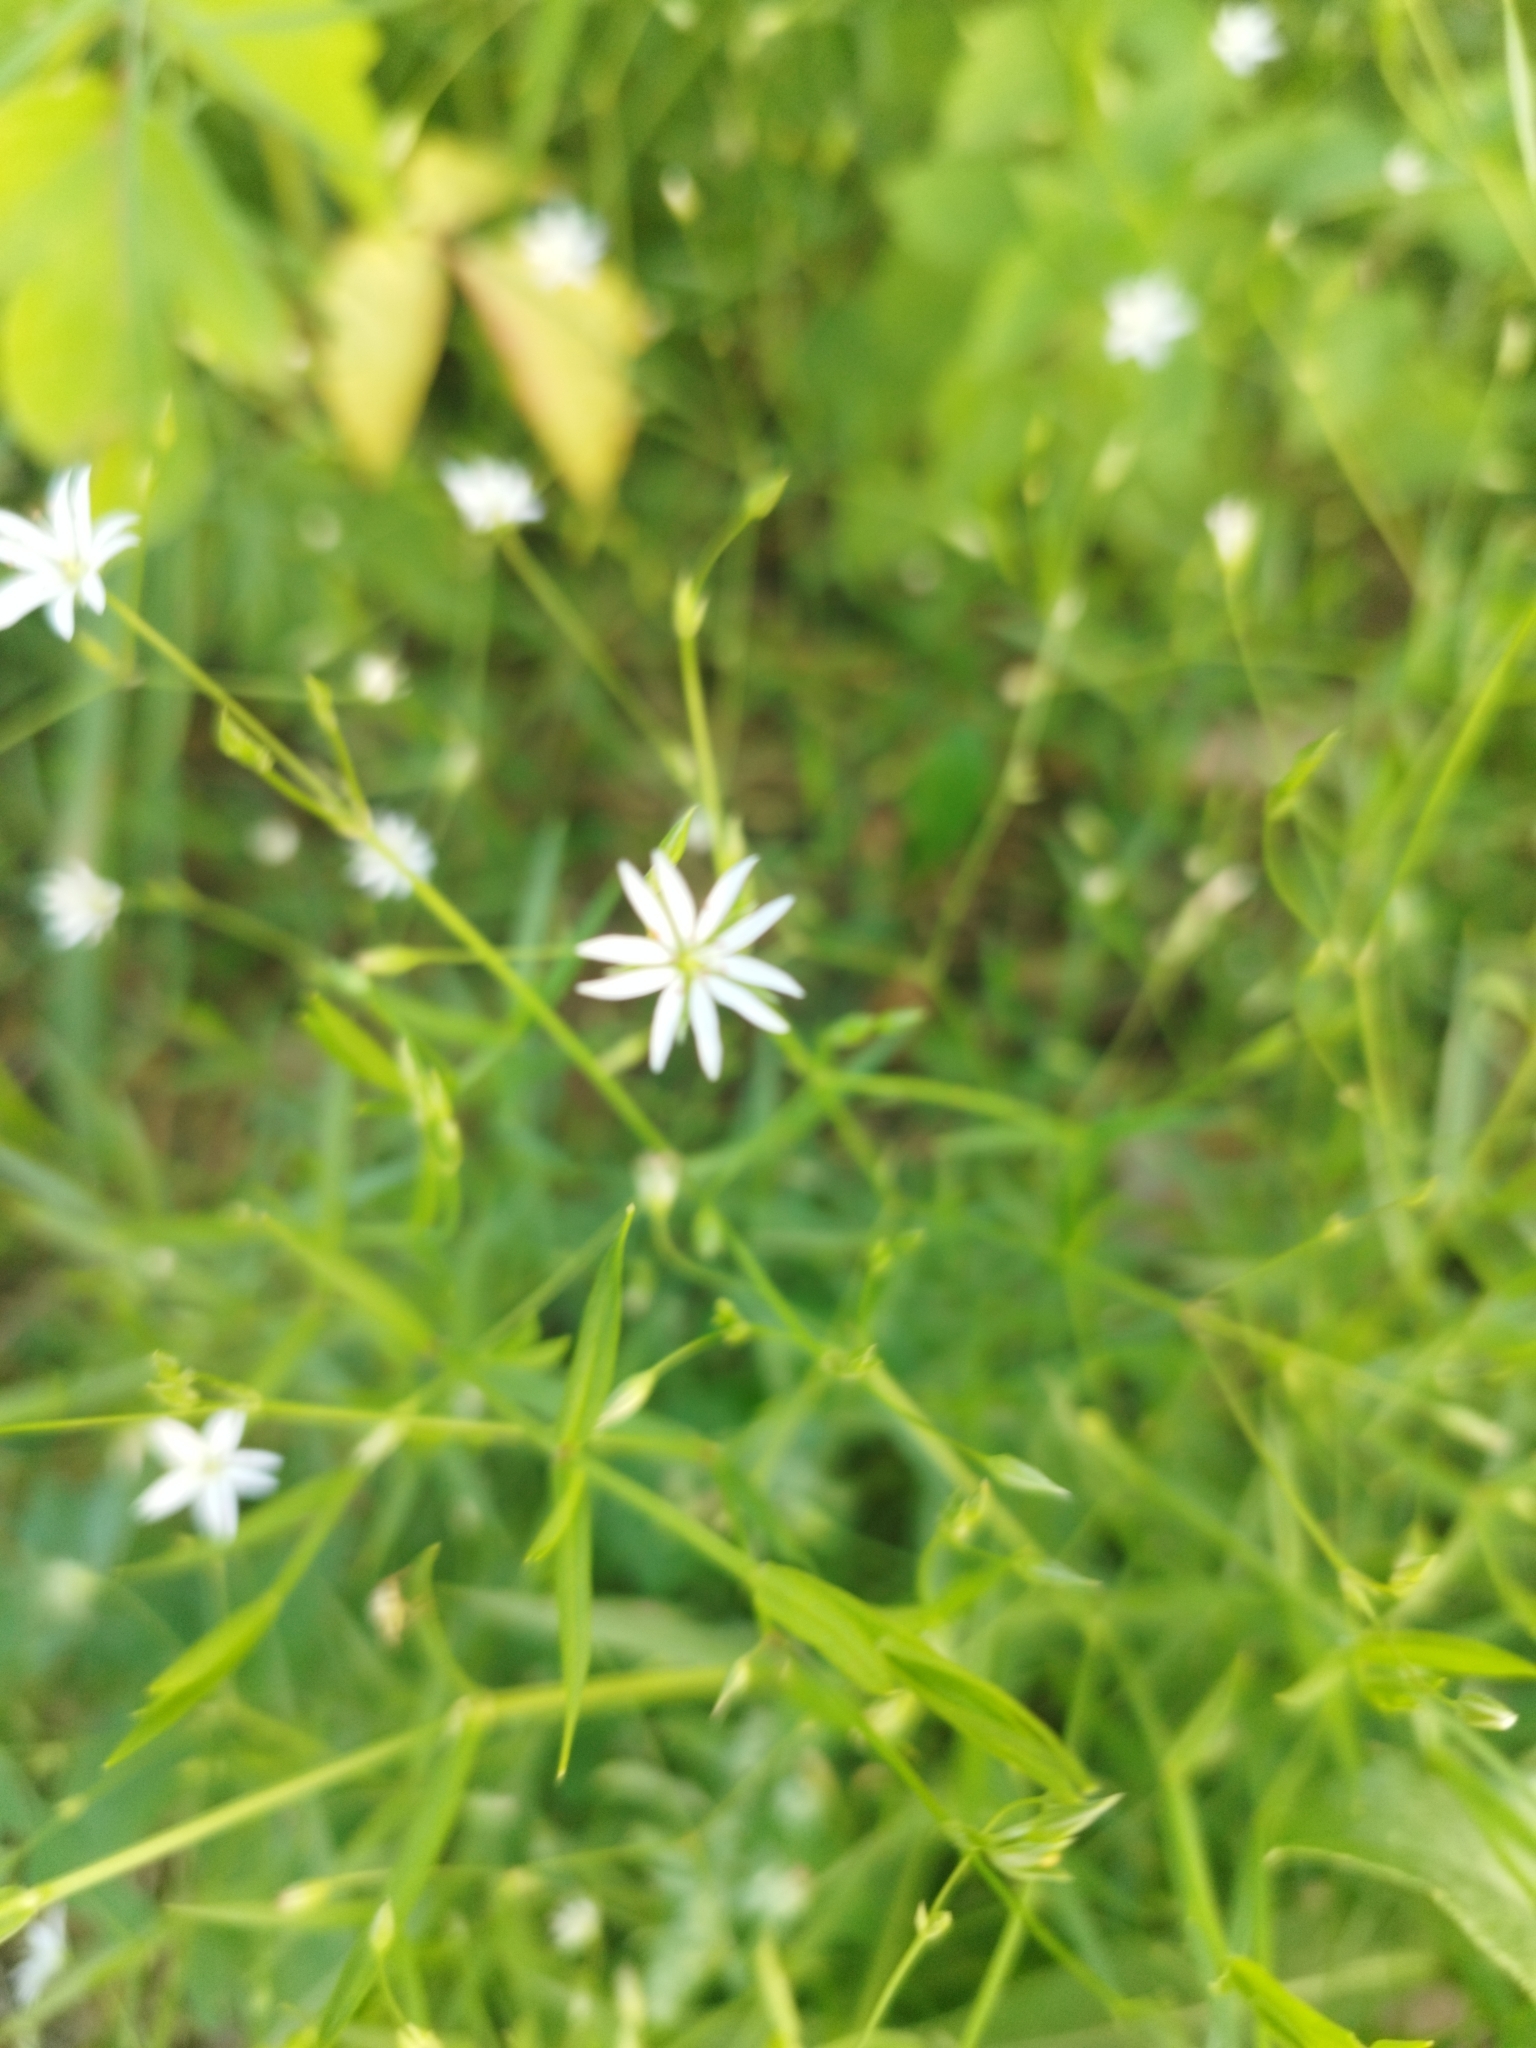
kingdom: Plantae
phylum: Tracheophyta
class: Magnoliopsida
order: Caryophyllales
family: Caryophyllaceae
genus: Stellaria
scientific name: Stellaria graminea
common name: Grass-like starwort
